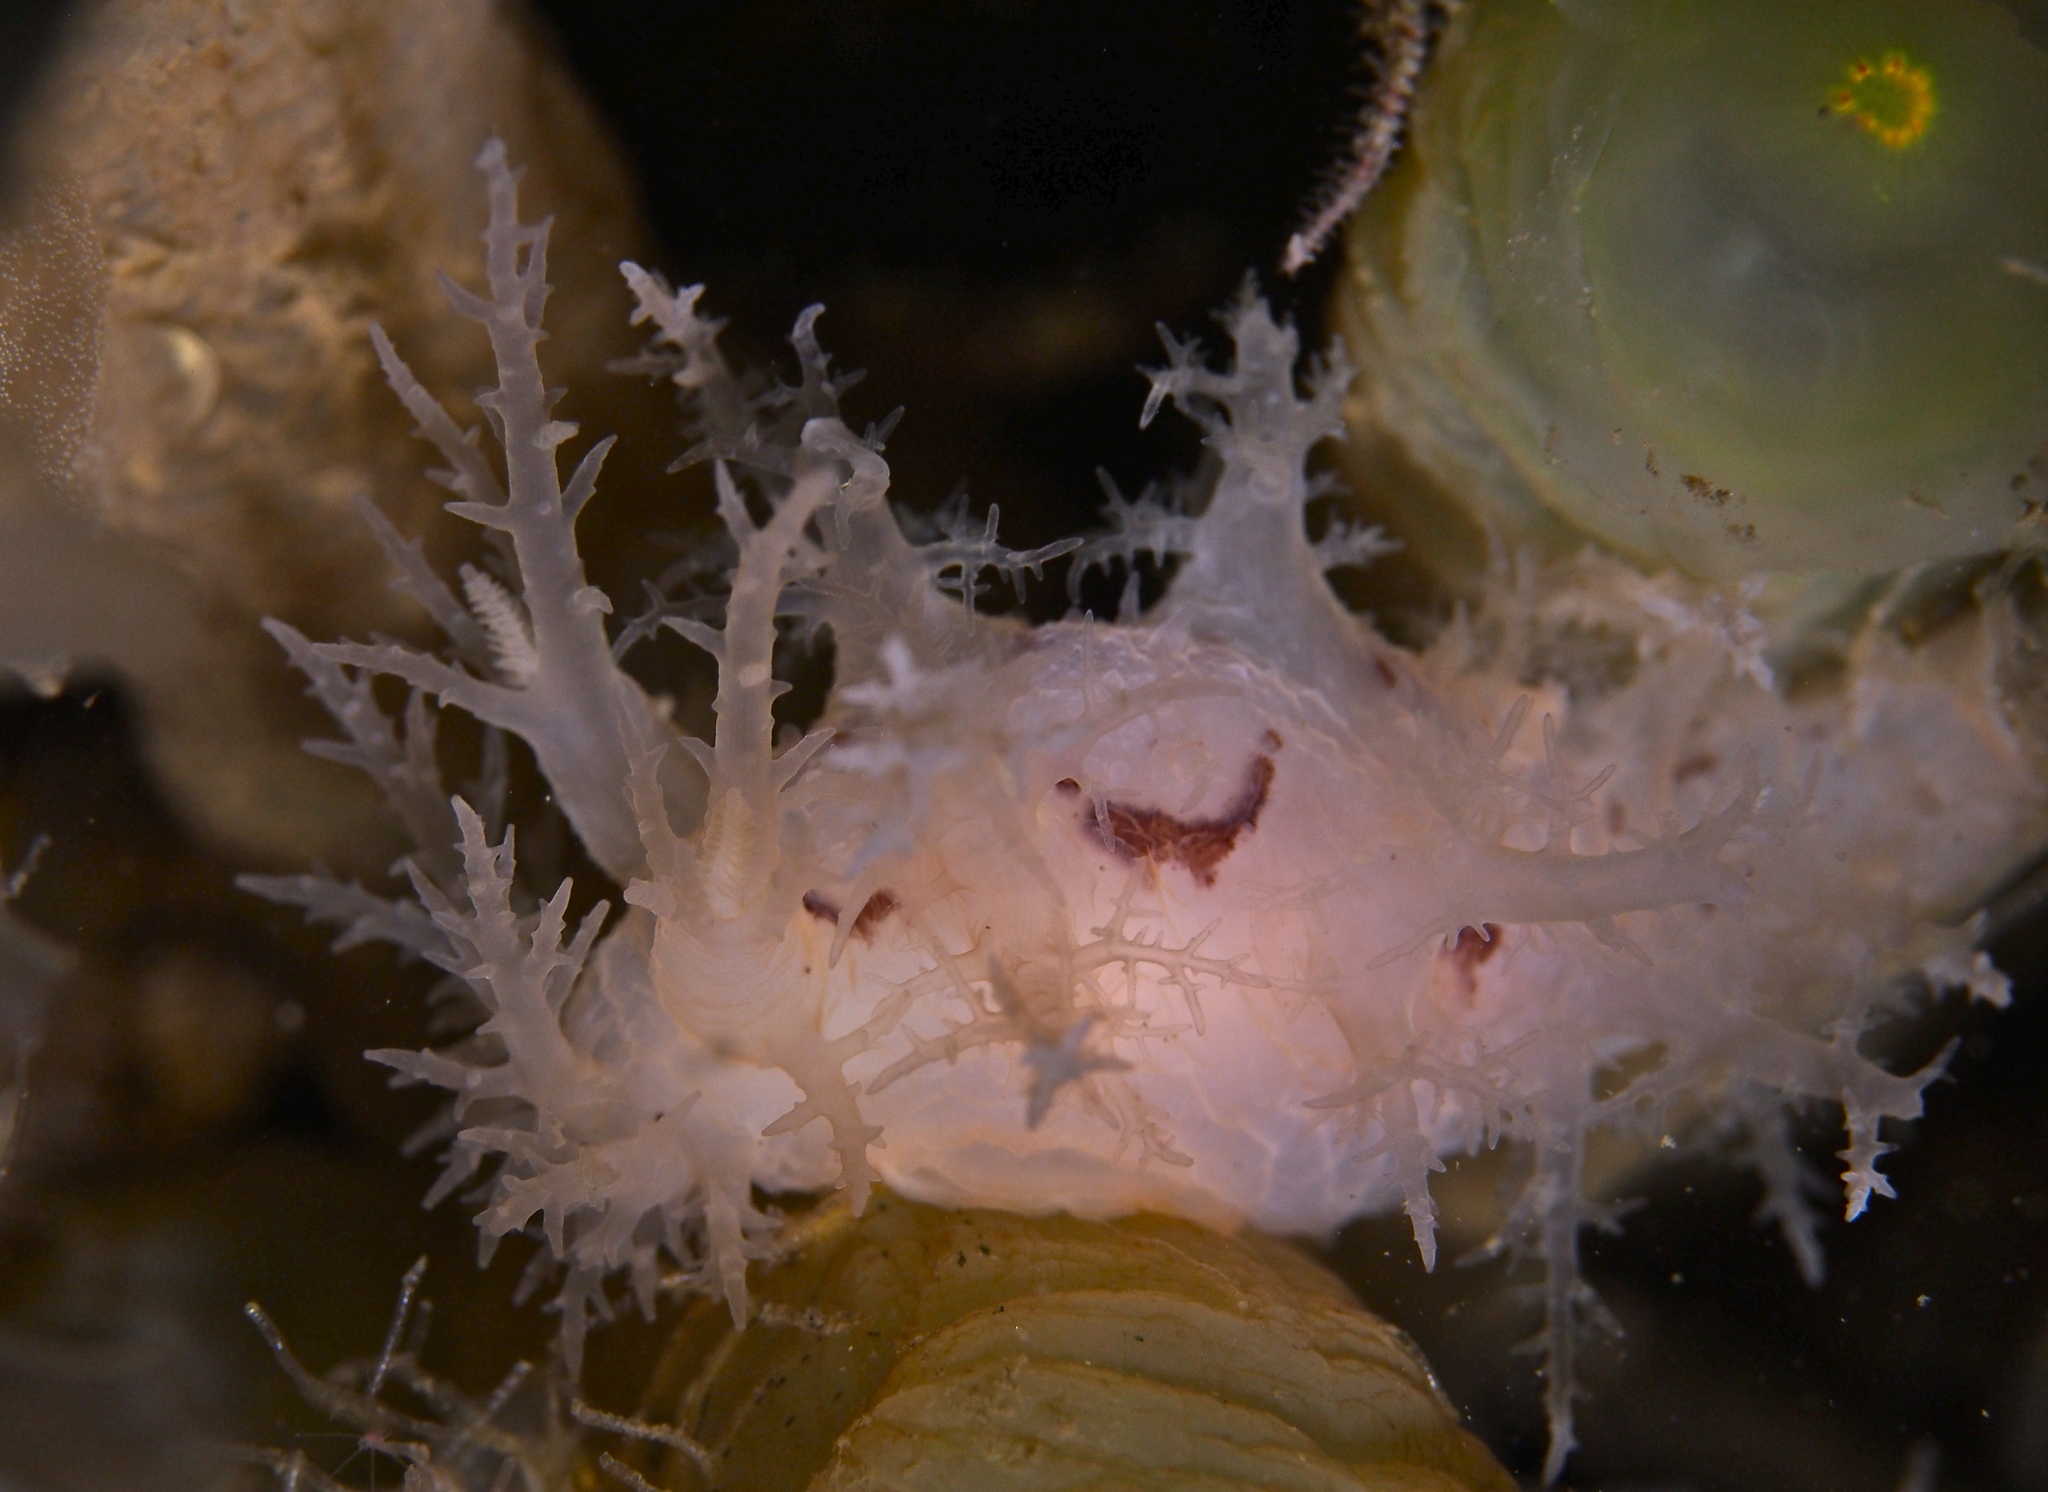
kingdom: Animalia
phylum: Mollusca
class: Gastropoda
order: Nudibranchia
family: Dendronotidae
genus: Dendronotus
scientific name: Dendronotus lacteus
